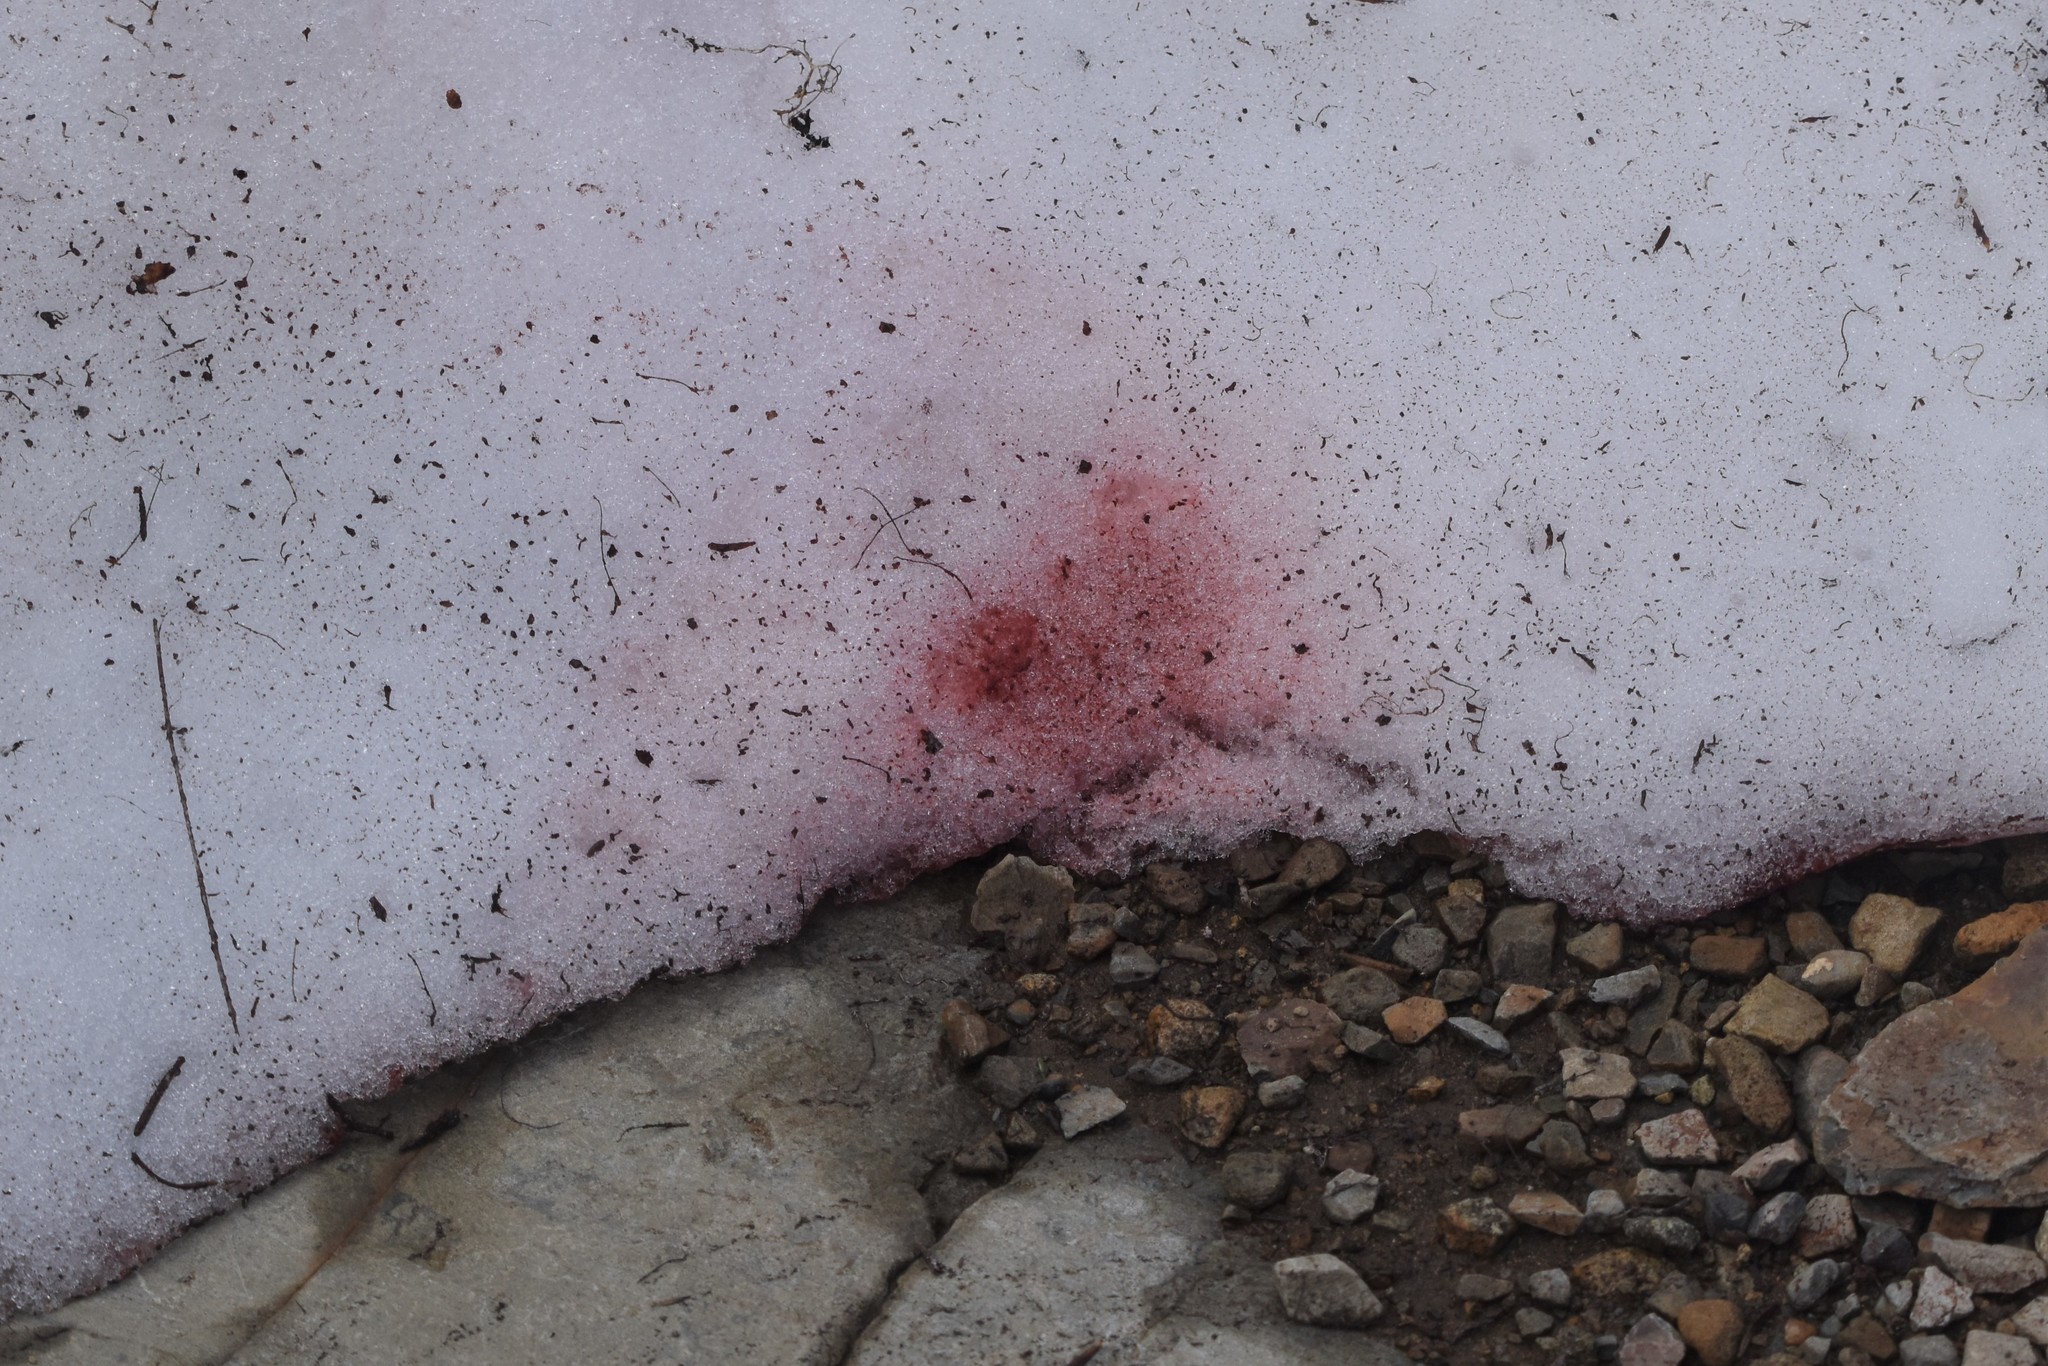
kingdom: Plantae
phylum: Chlorophyta
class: Chlorophyceae
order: Volvocales
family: Chlamydomonadaceae
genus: Chlamydomonas
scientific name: Chlamydomonas nivalis
